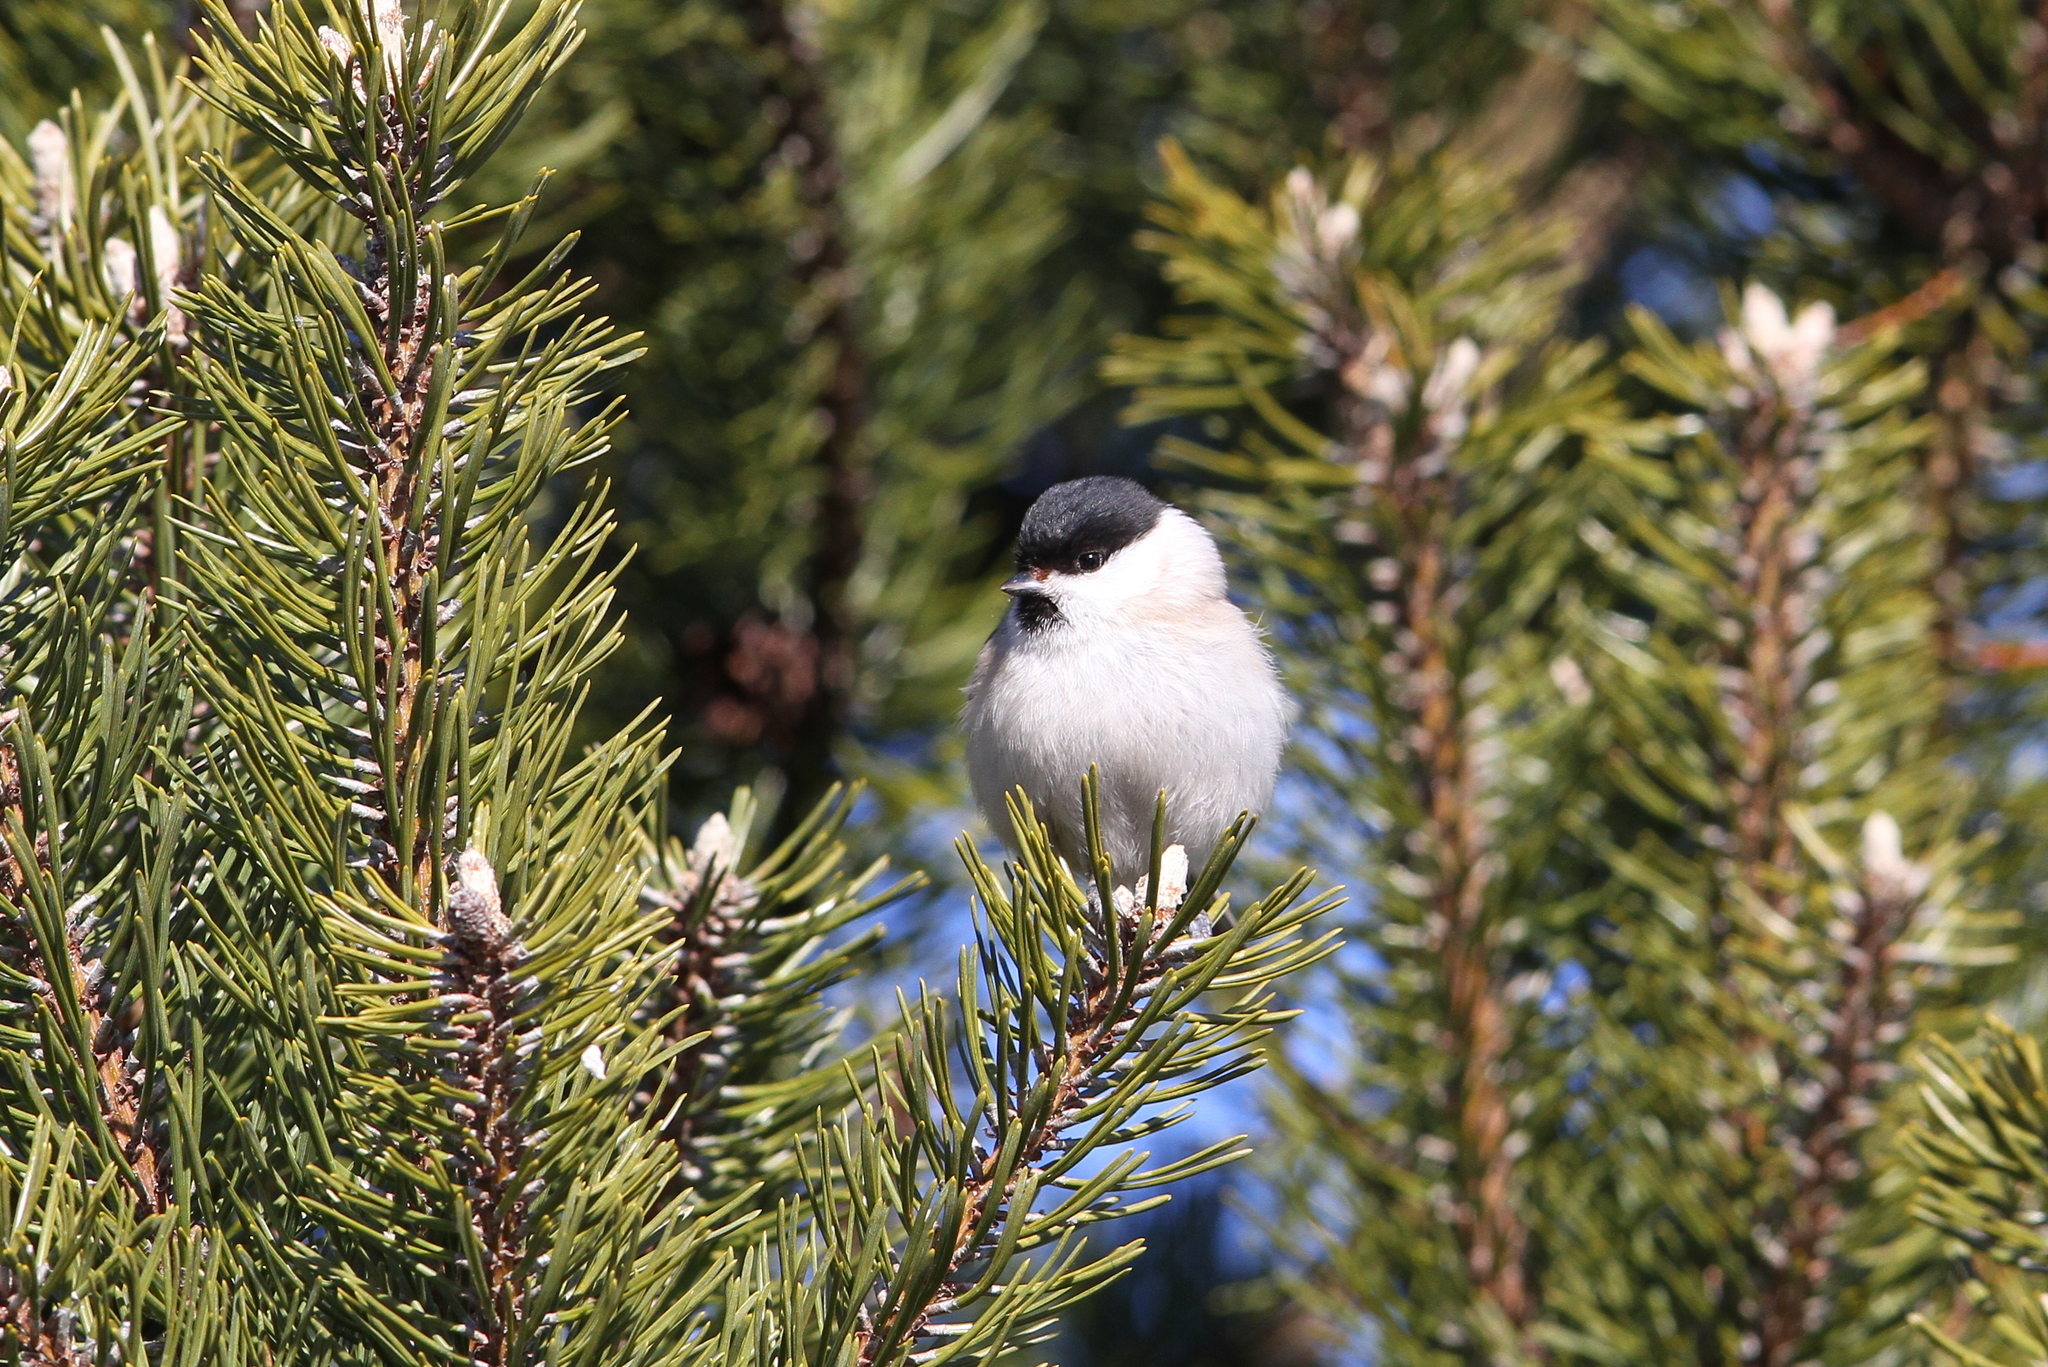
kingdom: Animalia
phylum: Chordata
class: Aves
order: Passeriformes
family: Paridae
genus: Poecile
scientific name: Poecile palustris
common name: Marsh tit
